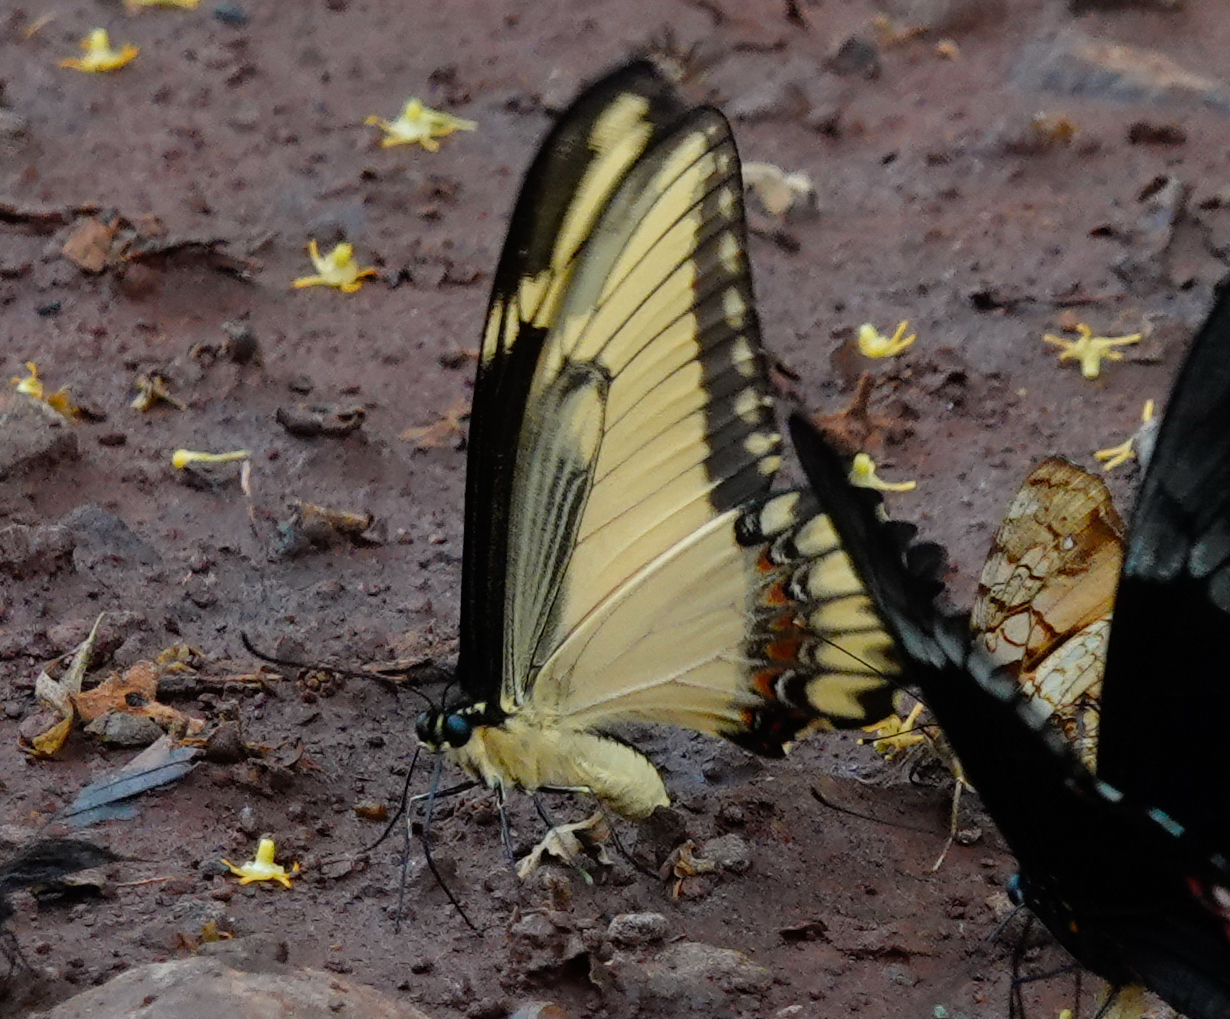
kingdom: Animalia
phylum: Arthropoda
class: Insecta
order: Lepidoptera
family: Papilionidae
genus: Papilio
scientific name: Papilio astyalus
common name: Astyalus swallowtail
